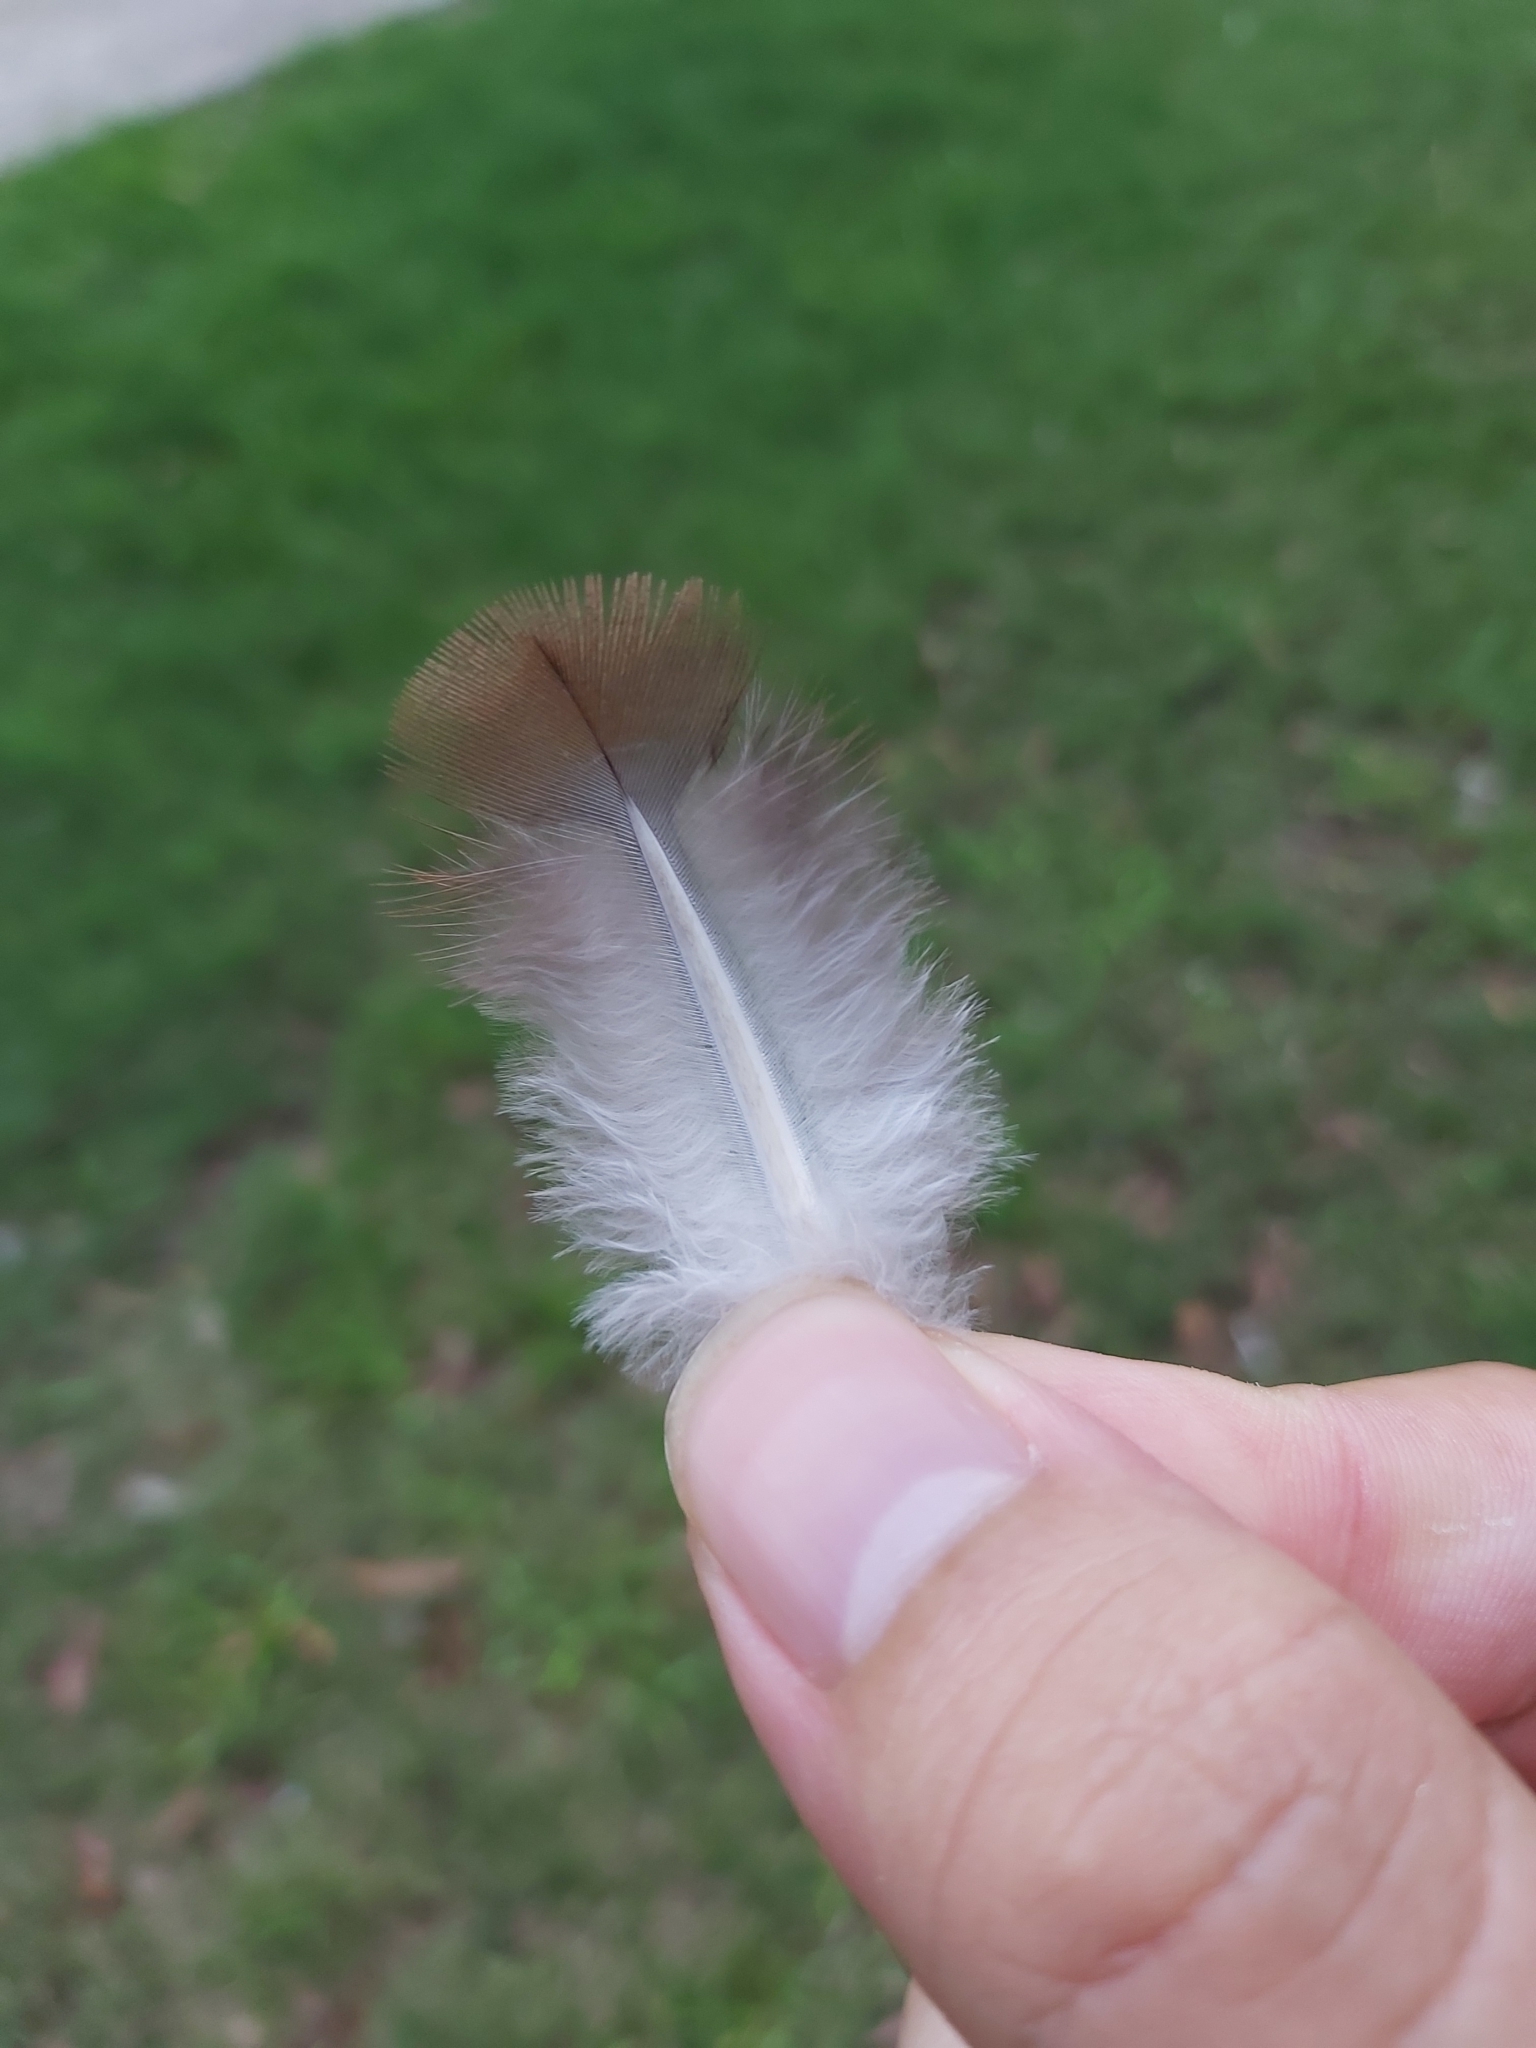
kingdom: Animalia
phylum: Chordata
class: Aves
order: Columbiformes
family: Columbidae
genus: Macropygia
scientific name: Macropygia phasianella
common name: Brown cuckoo-dove
